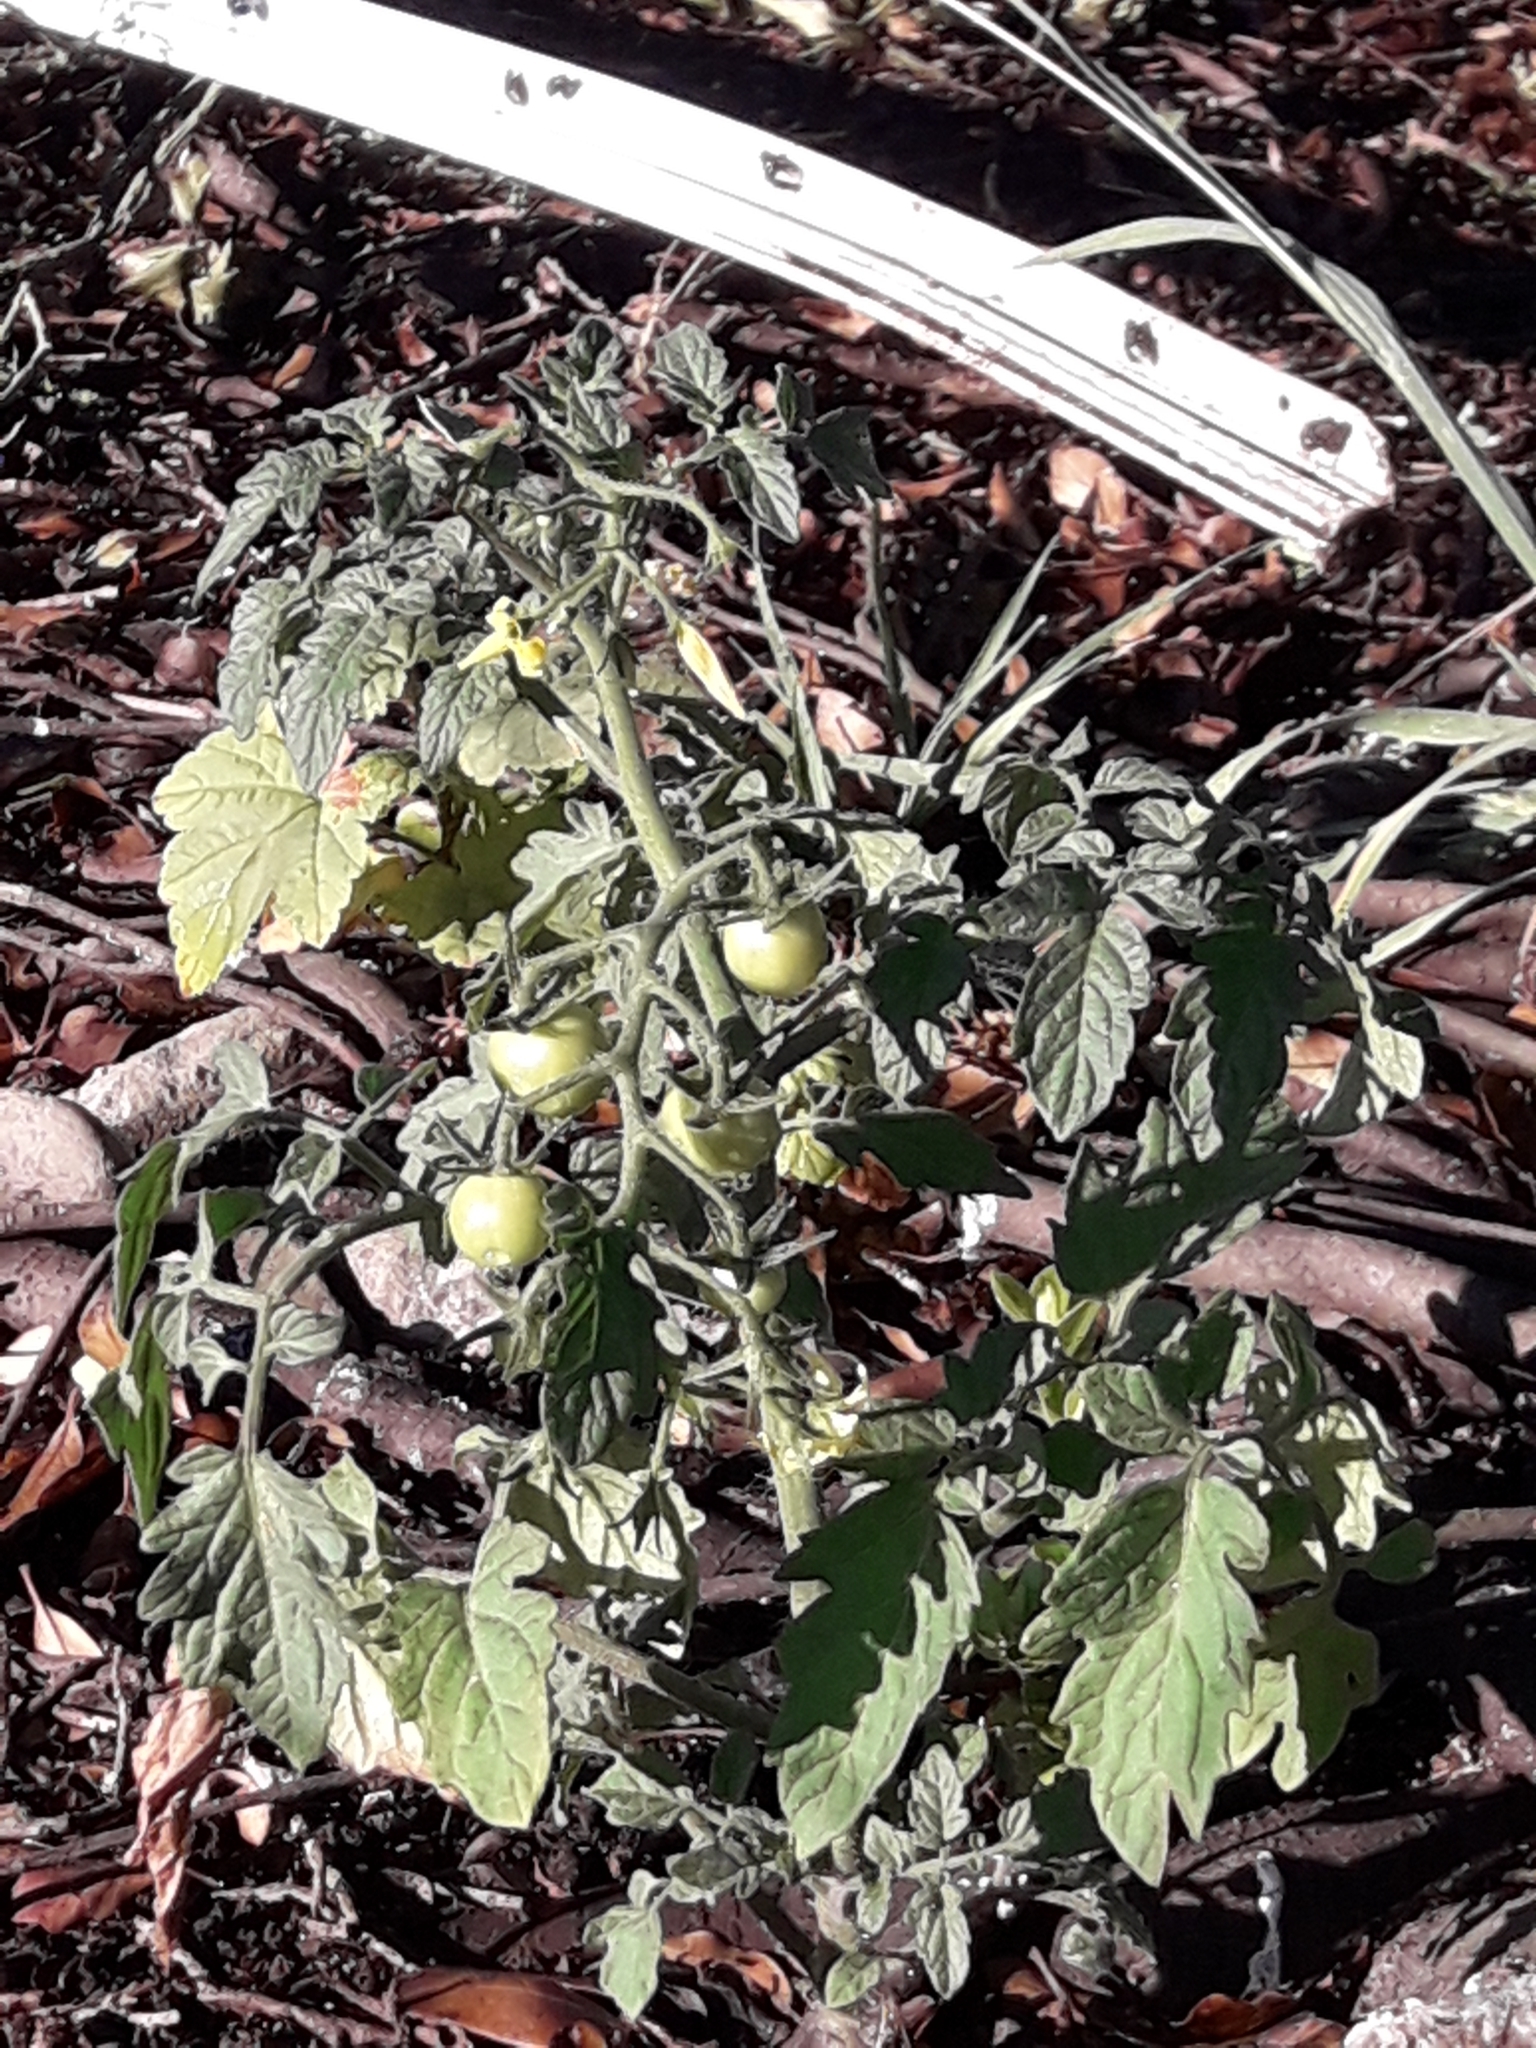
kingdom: Plantae
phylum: Tracheophyta
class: Magnoliopsida
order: Solanales
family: Solanaceae
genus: Solanum
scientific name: Solanum lycopersicum
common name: Garden tomato
